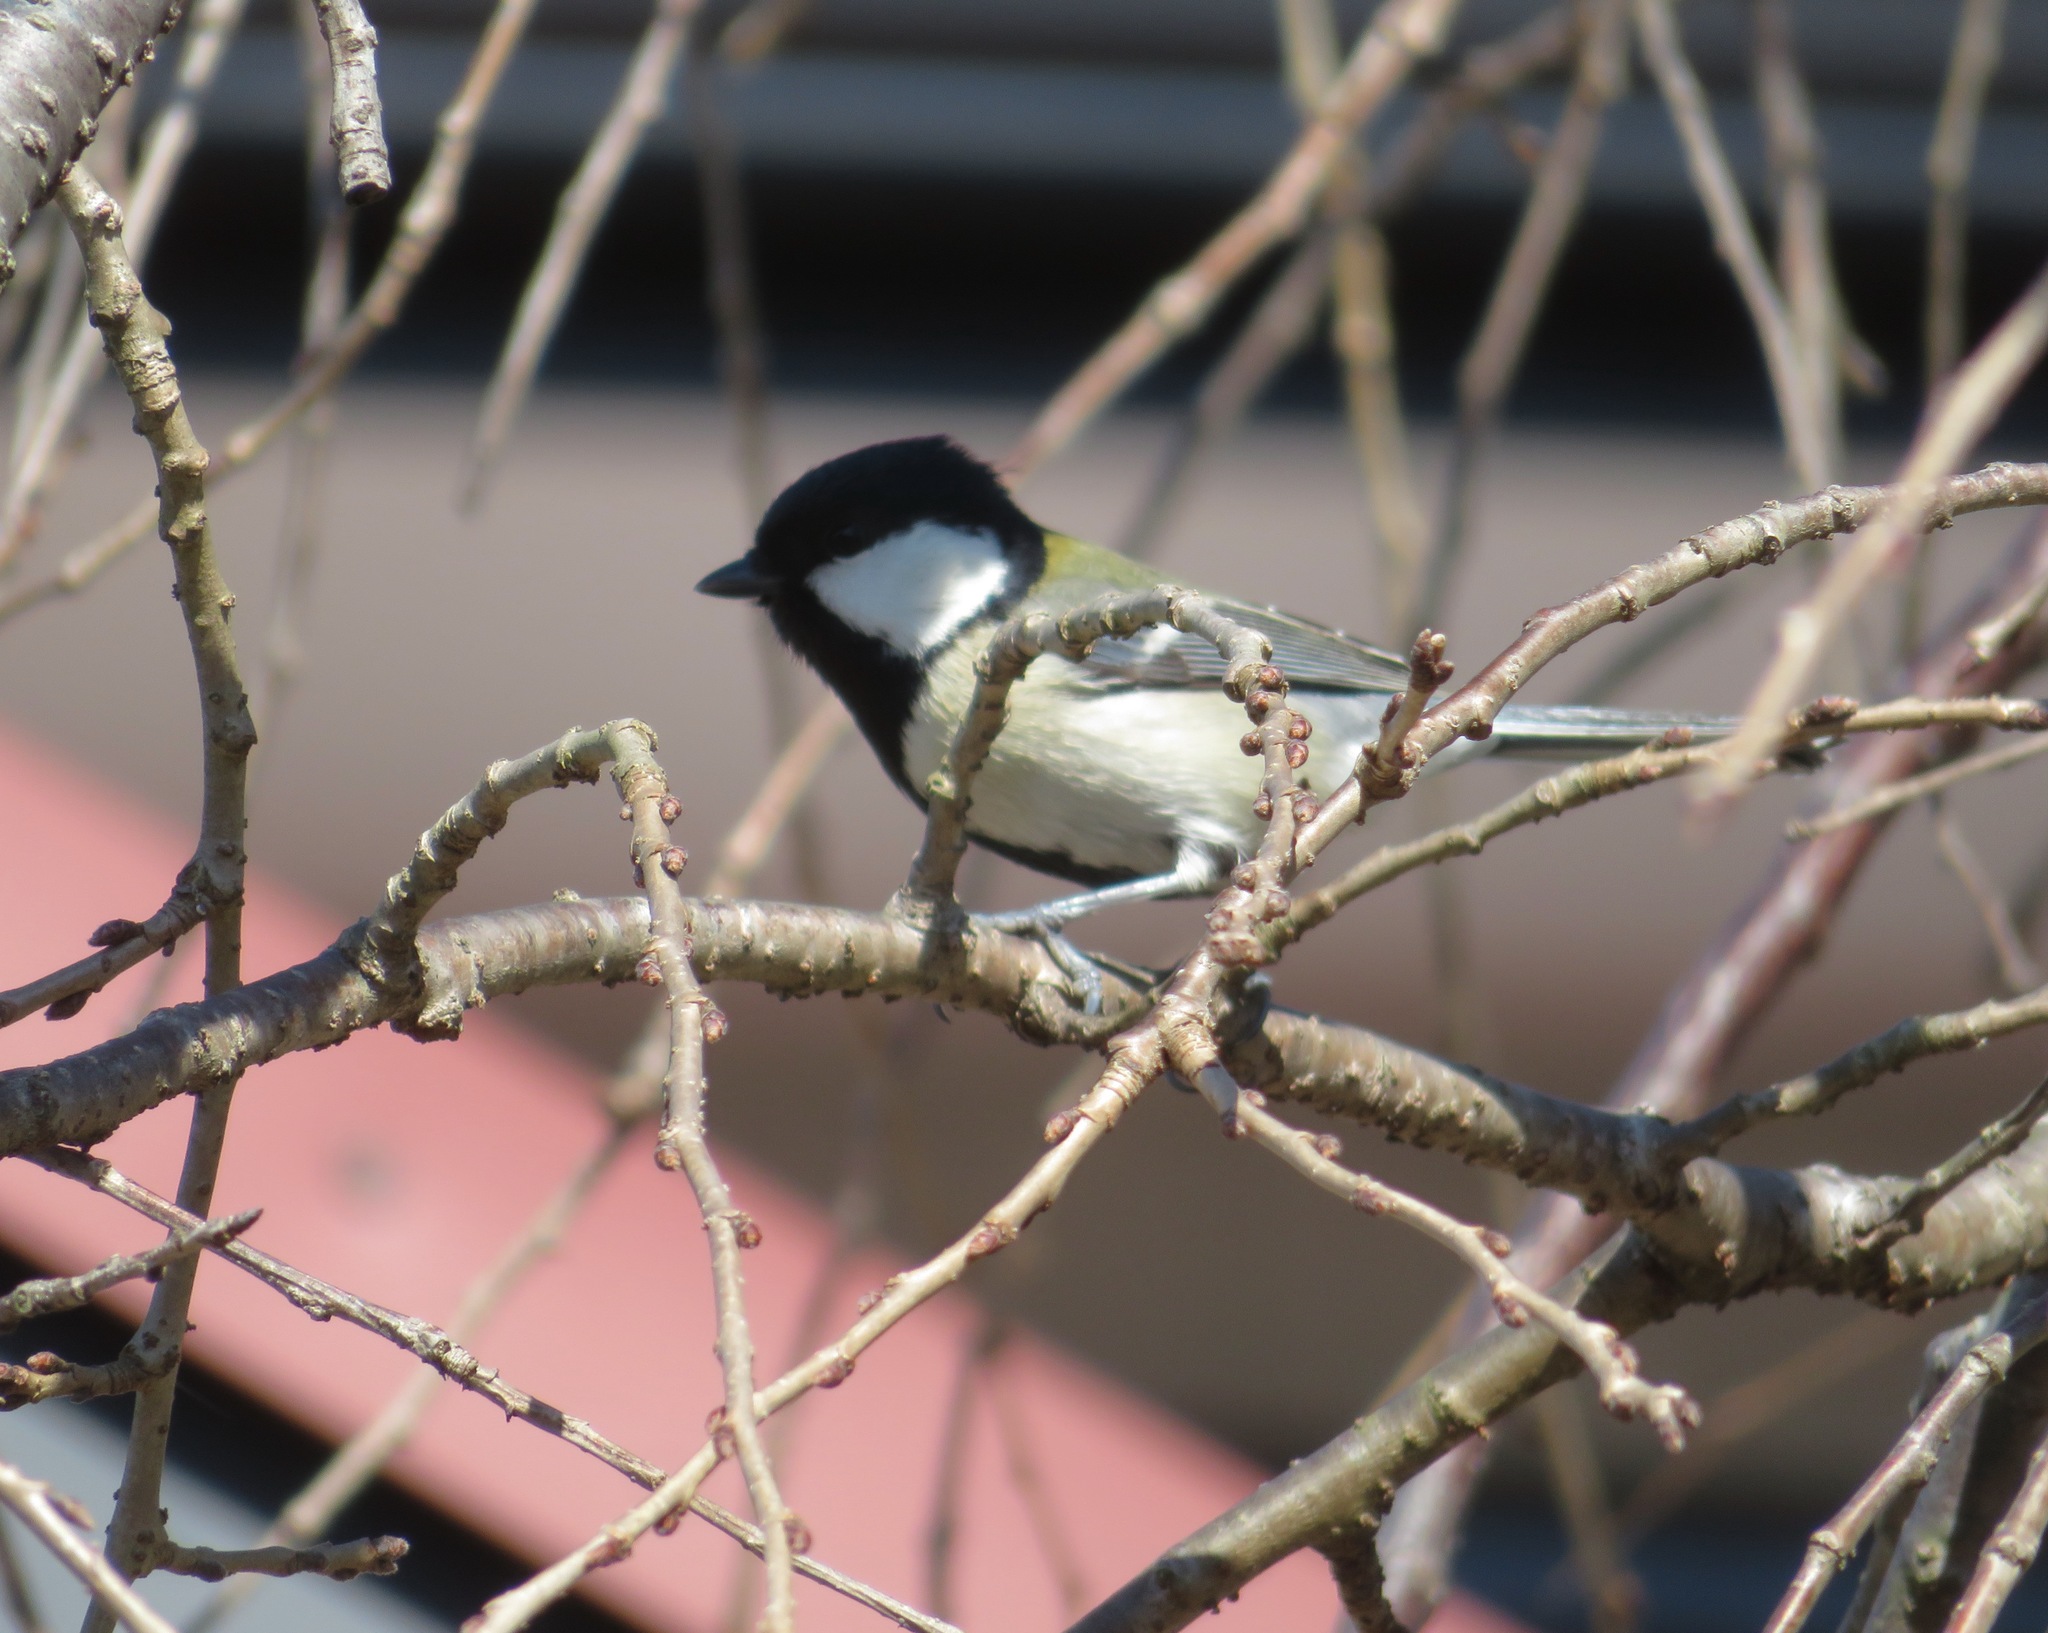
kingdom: Animalia
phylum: Chordata
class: Aves
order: Passeriformes
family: Paridae
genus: Parus
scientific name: Parus minor
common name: Japanese tit
